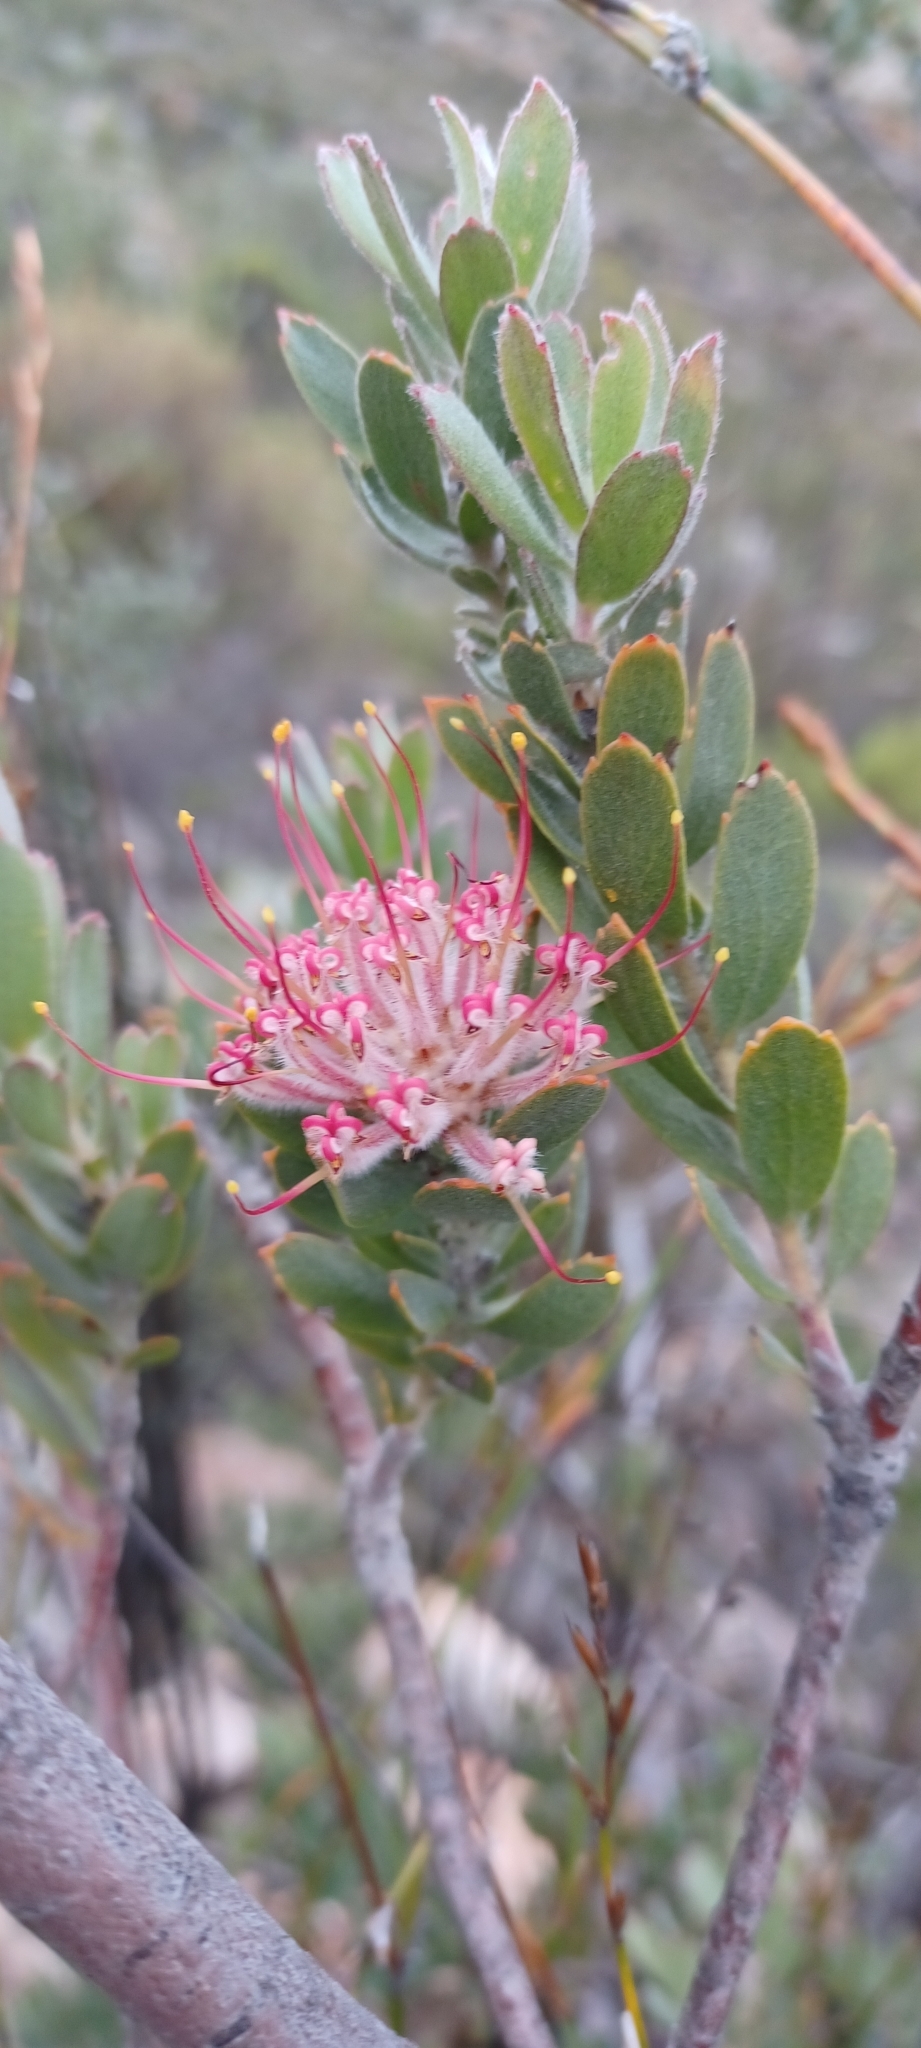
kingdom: Plantae
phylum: Tracheophyta
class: Magnoliopsida
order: Proteales
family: Proteaceae
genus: Leucospermum
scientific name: Leucospermum calligerum
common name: Arid pincushion
